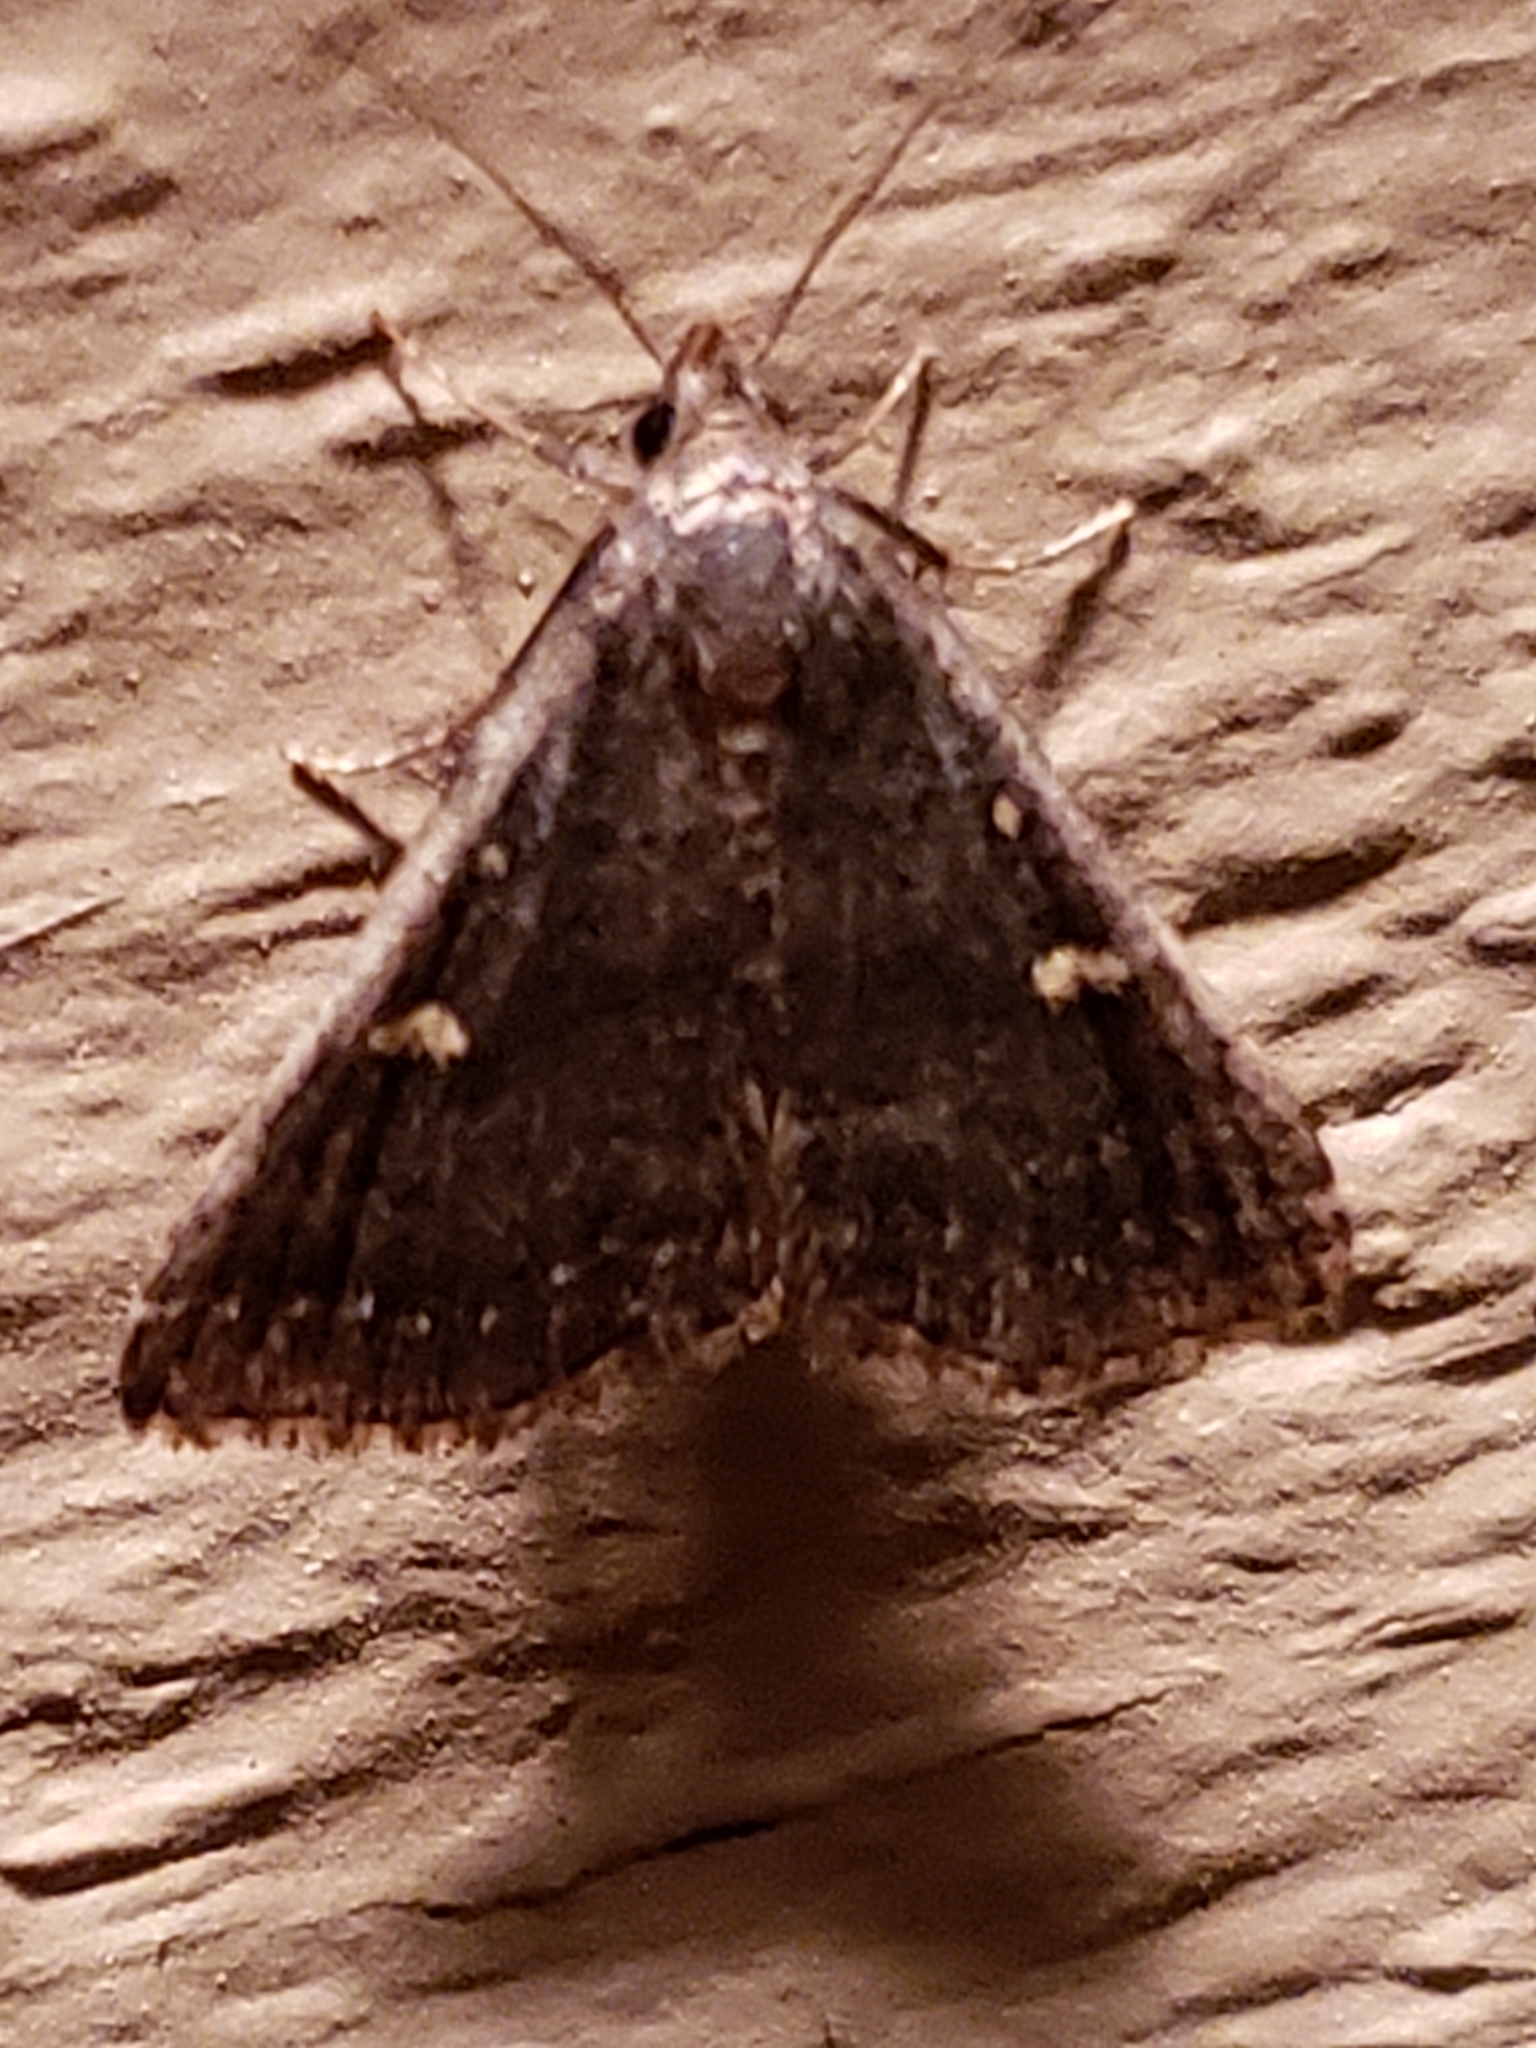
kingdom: Animalia
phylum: Arthropoda
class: Insecta
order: Lepidoptera
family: Erebidae
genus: Tetanolita
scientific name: Tetanolita mynesalis
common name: Smoky tetanolita moth
